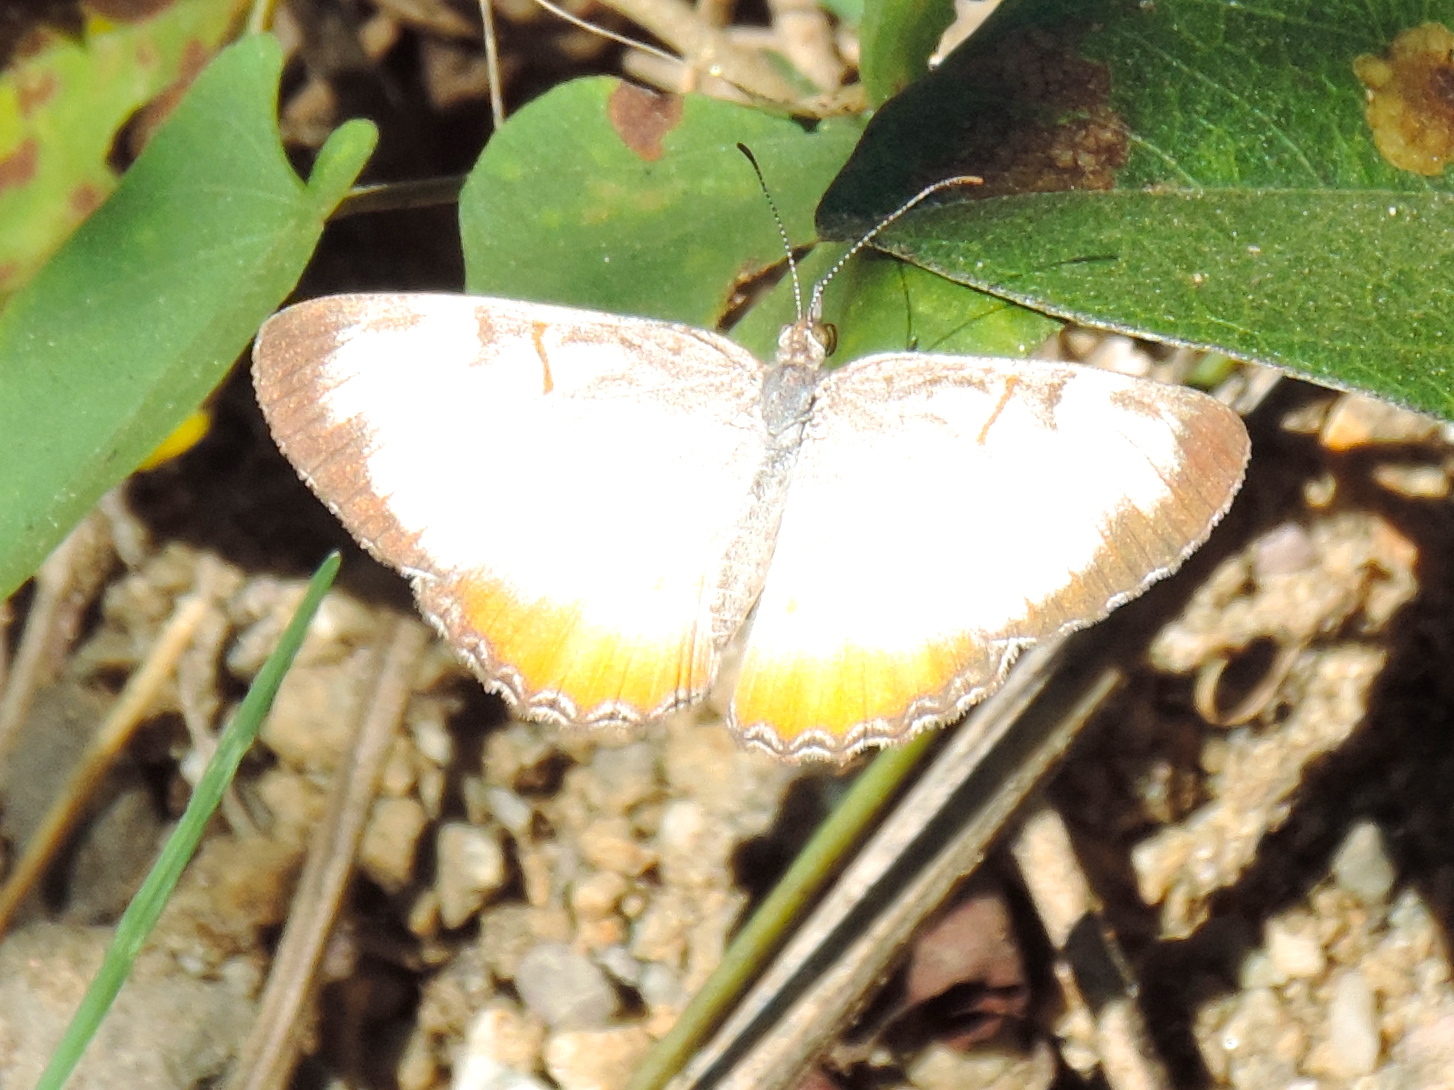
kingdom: Animalia
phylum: Arthropoda
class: Insecta
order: Lepidoptera
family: Nymphalidae
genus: Mestra
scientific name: Mestra amymone
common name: Common mestra
